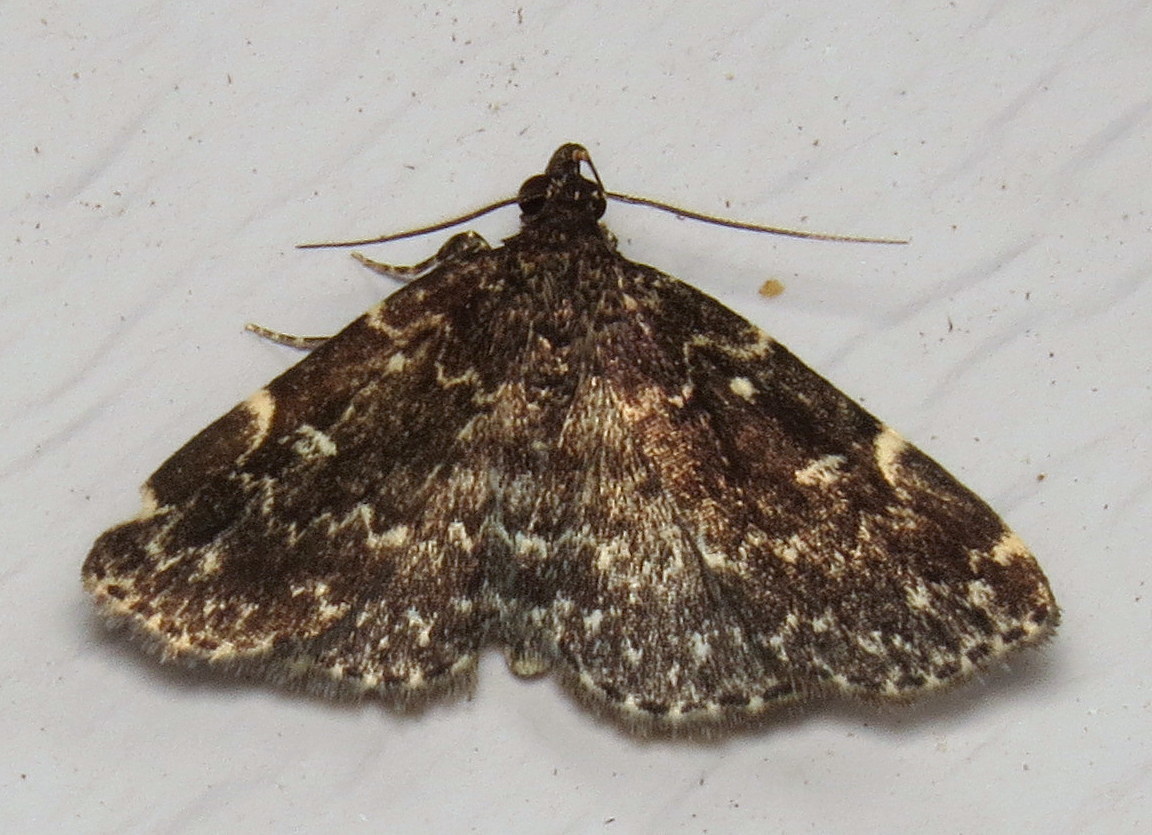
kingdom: Animalia
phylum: Arthropoda
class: Insecta
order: Lepidoptera
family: Erebidae
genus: Idia
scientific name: Idia scobialis
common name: Smoky idia moth
